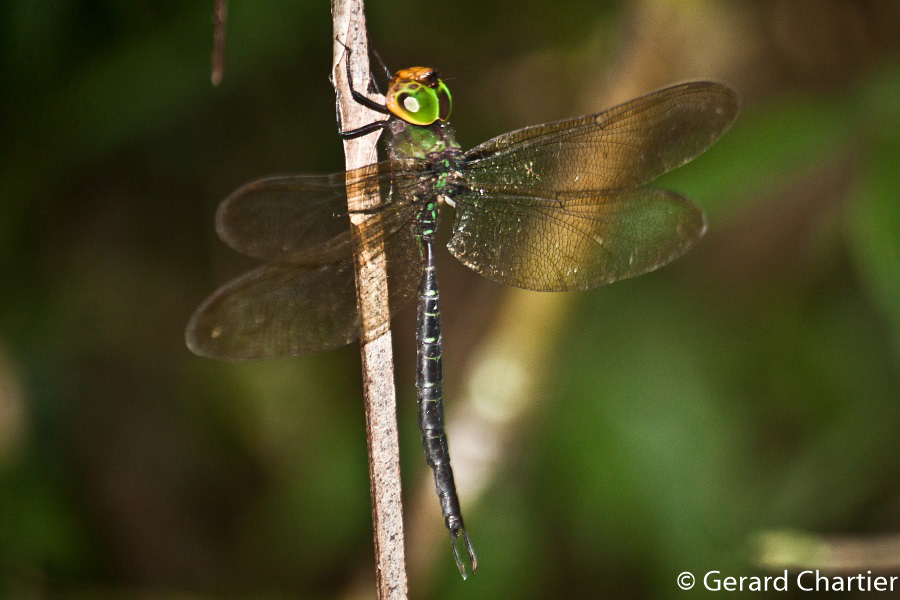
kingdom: Animalia
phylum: Arthropoda
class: Insecta
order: Odonata
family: Aeshnidae
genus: Heliaeschna
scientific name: Heliaeschna crassa
